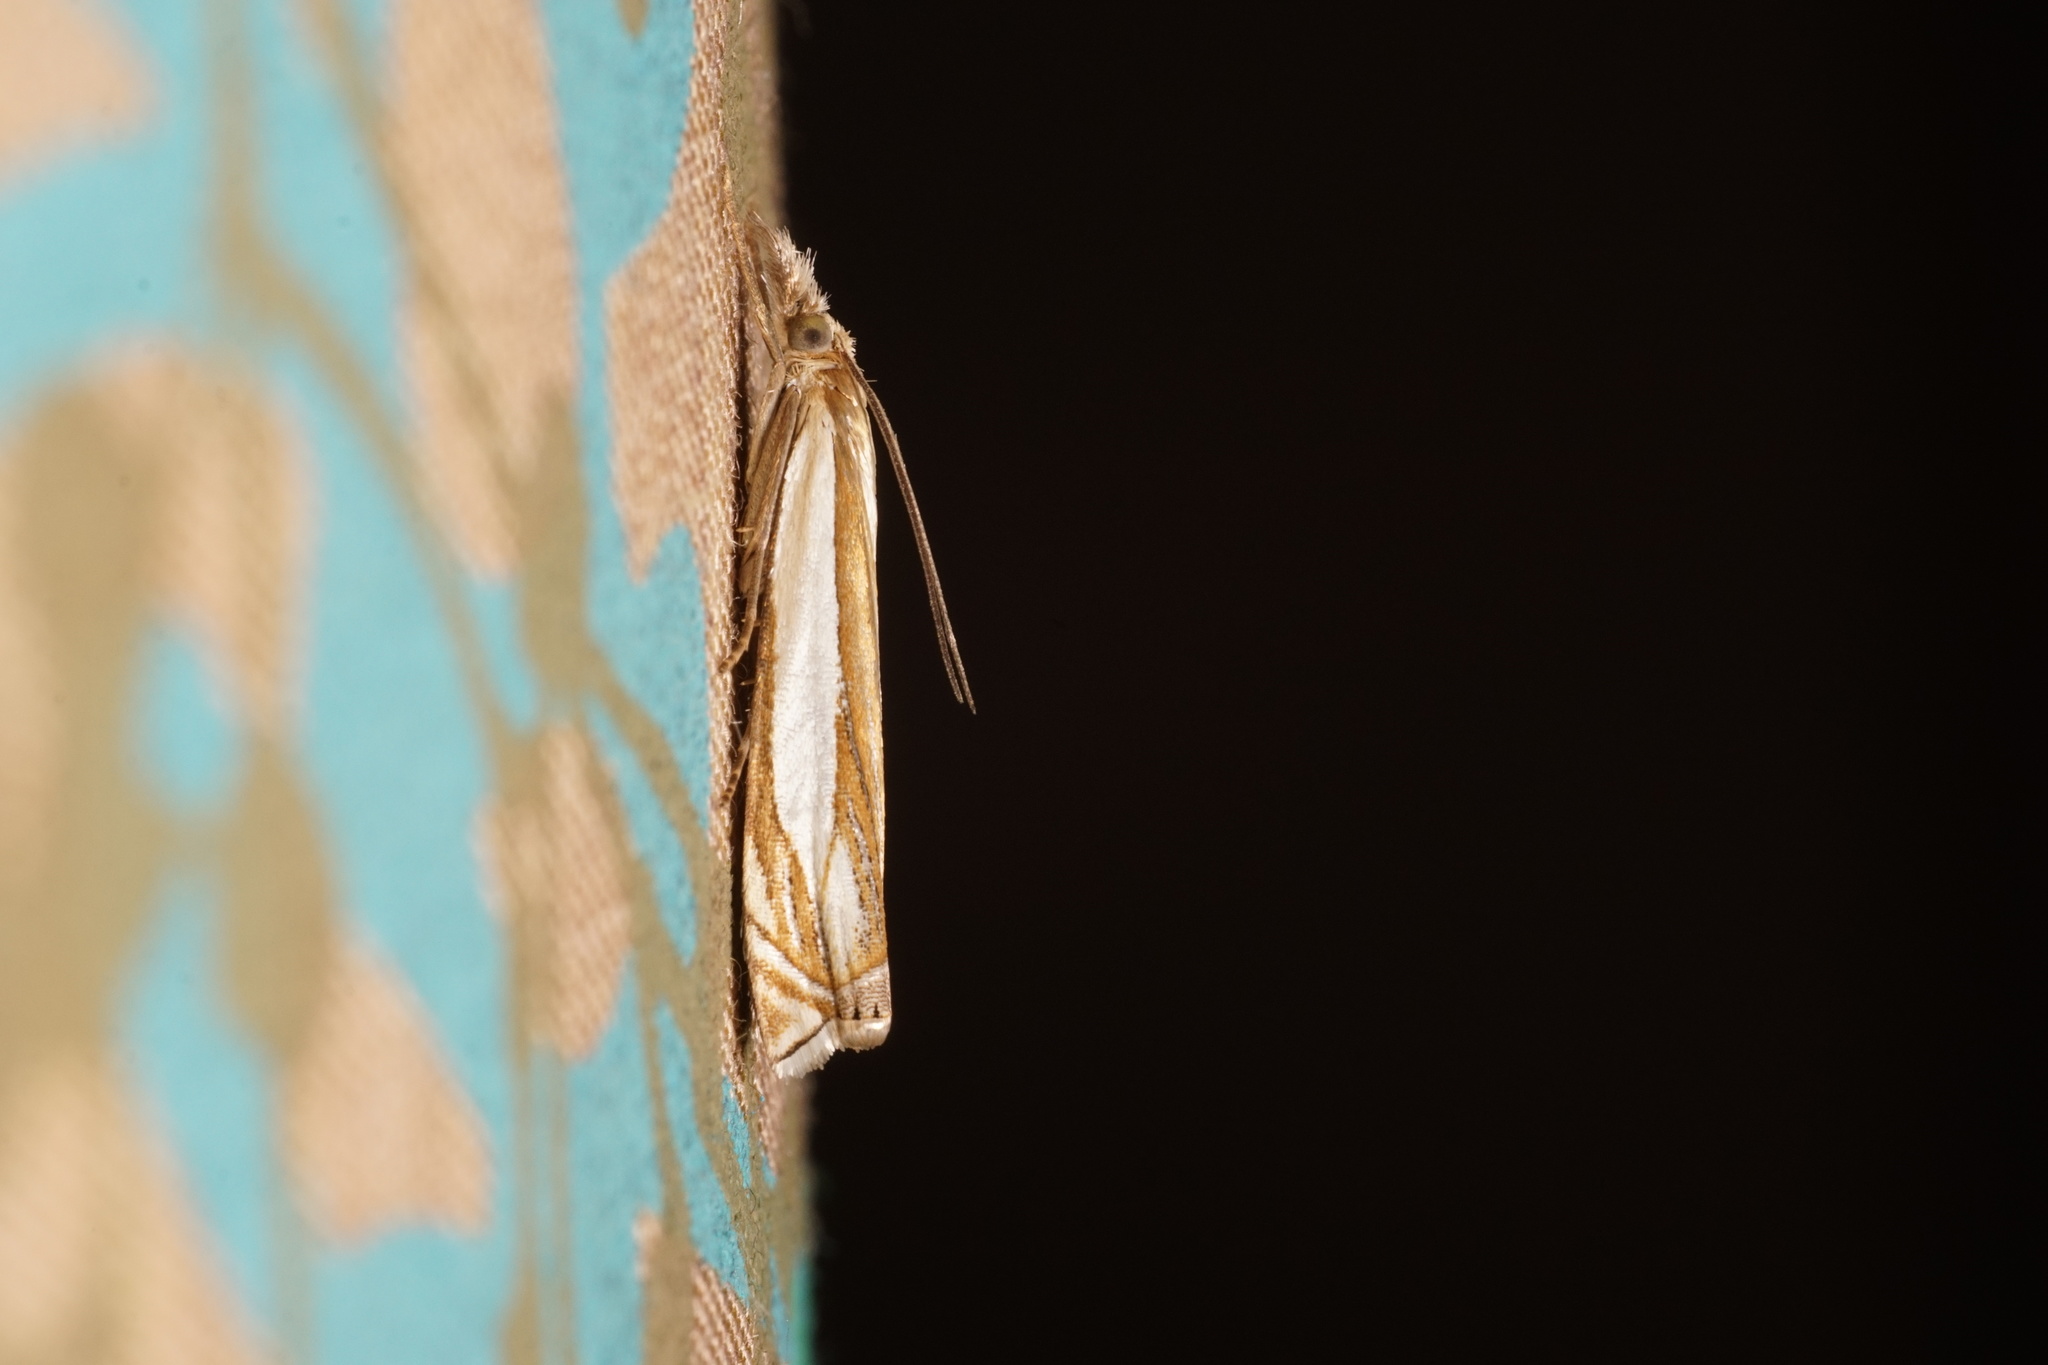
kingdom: Animalia
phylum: Arthropoda
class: Insecta
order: Lepidoptera
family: Crambidae
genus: Crambus
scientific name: Crambus pascuella
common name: Inlaid grass-veneer
